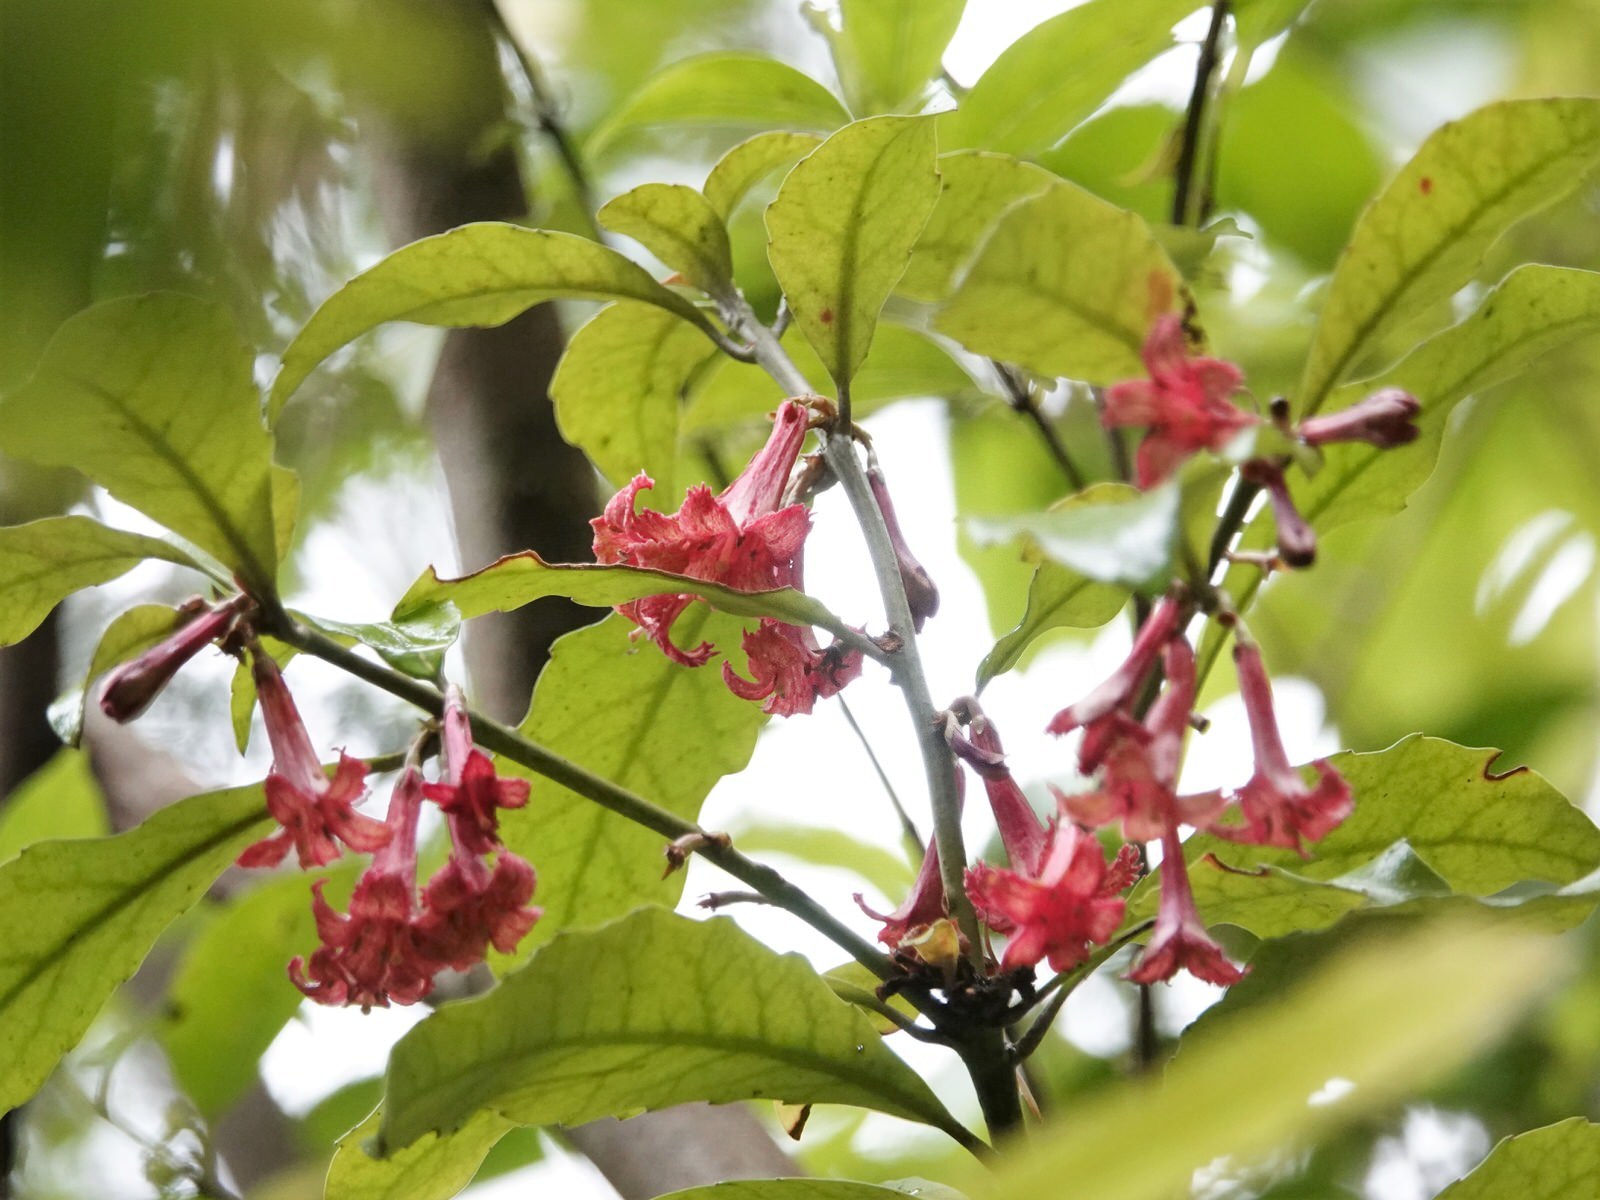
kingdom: Plantae
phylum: Tracheophyta
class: Magnoliopsida
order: Asterales
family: Alseuosmiaceae
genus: Alseuosmia
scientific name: Alseuosmia macrophylla
